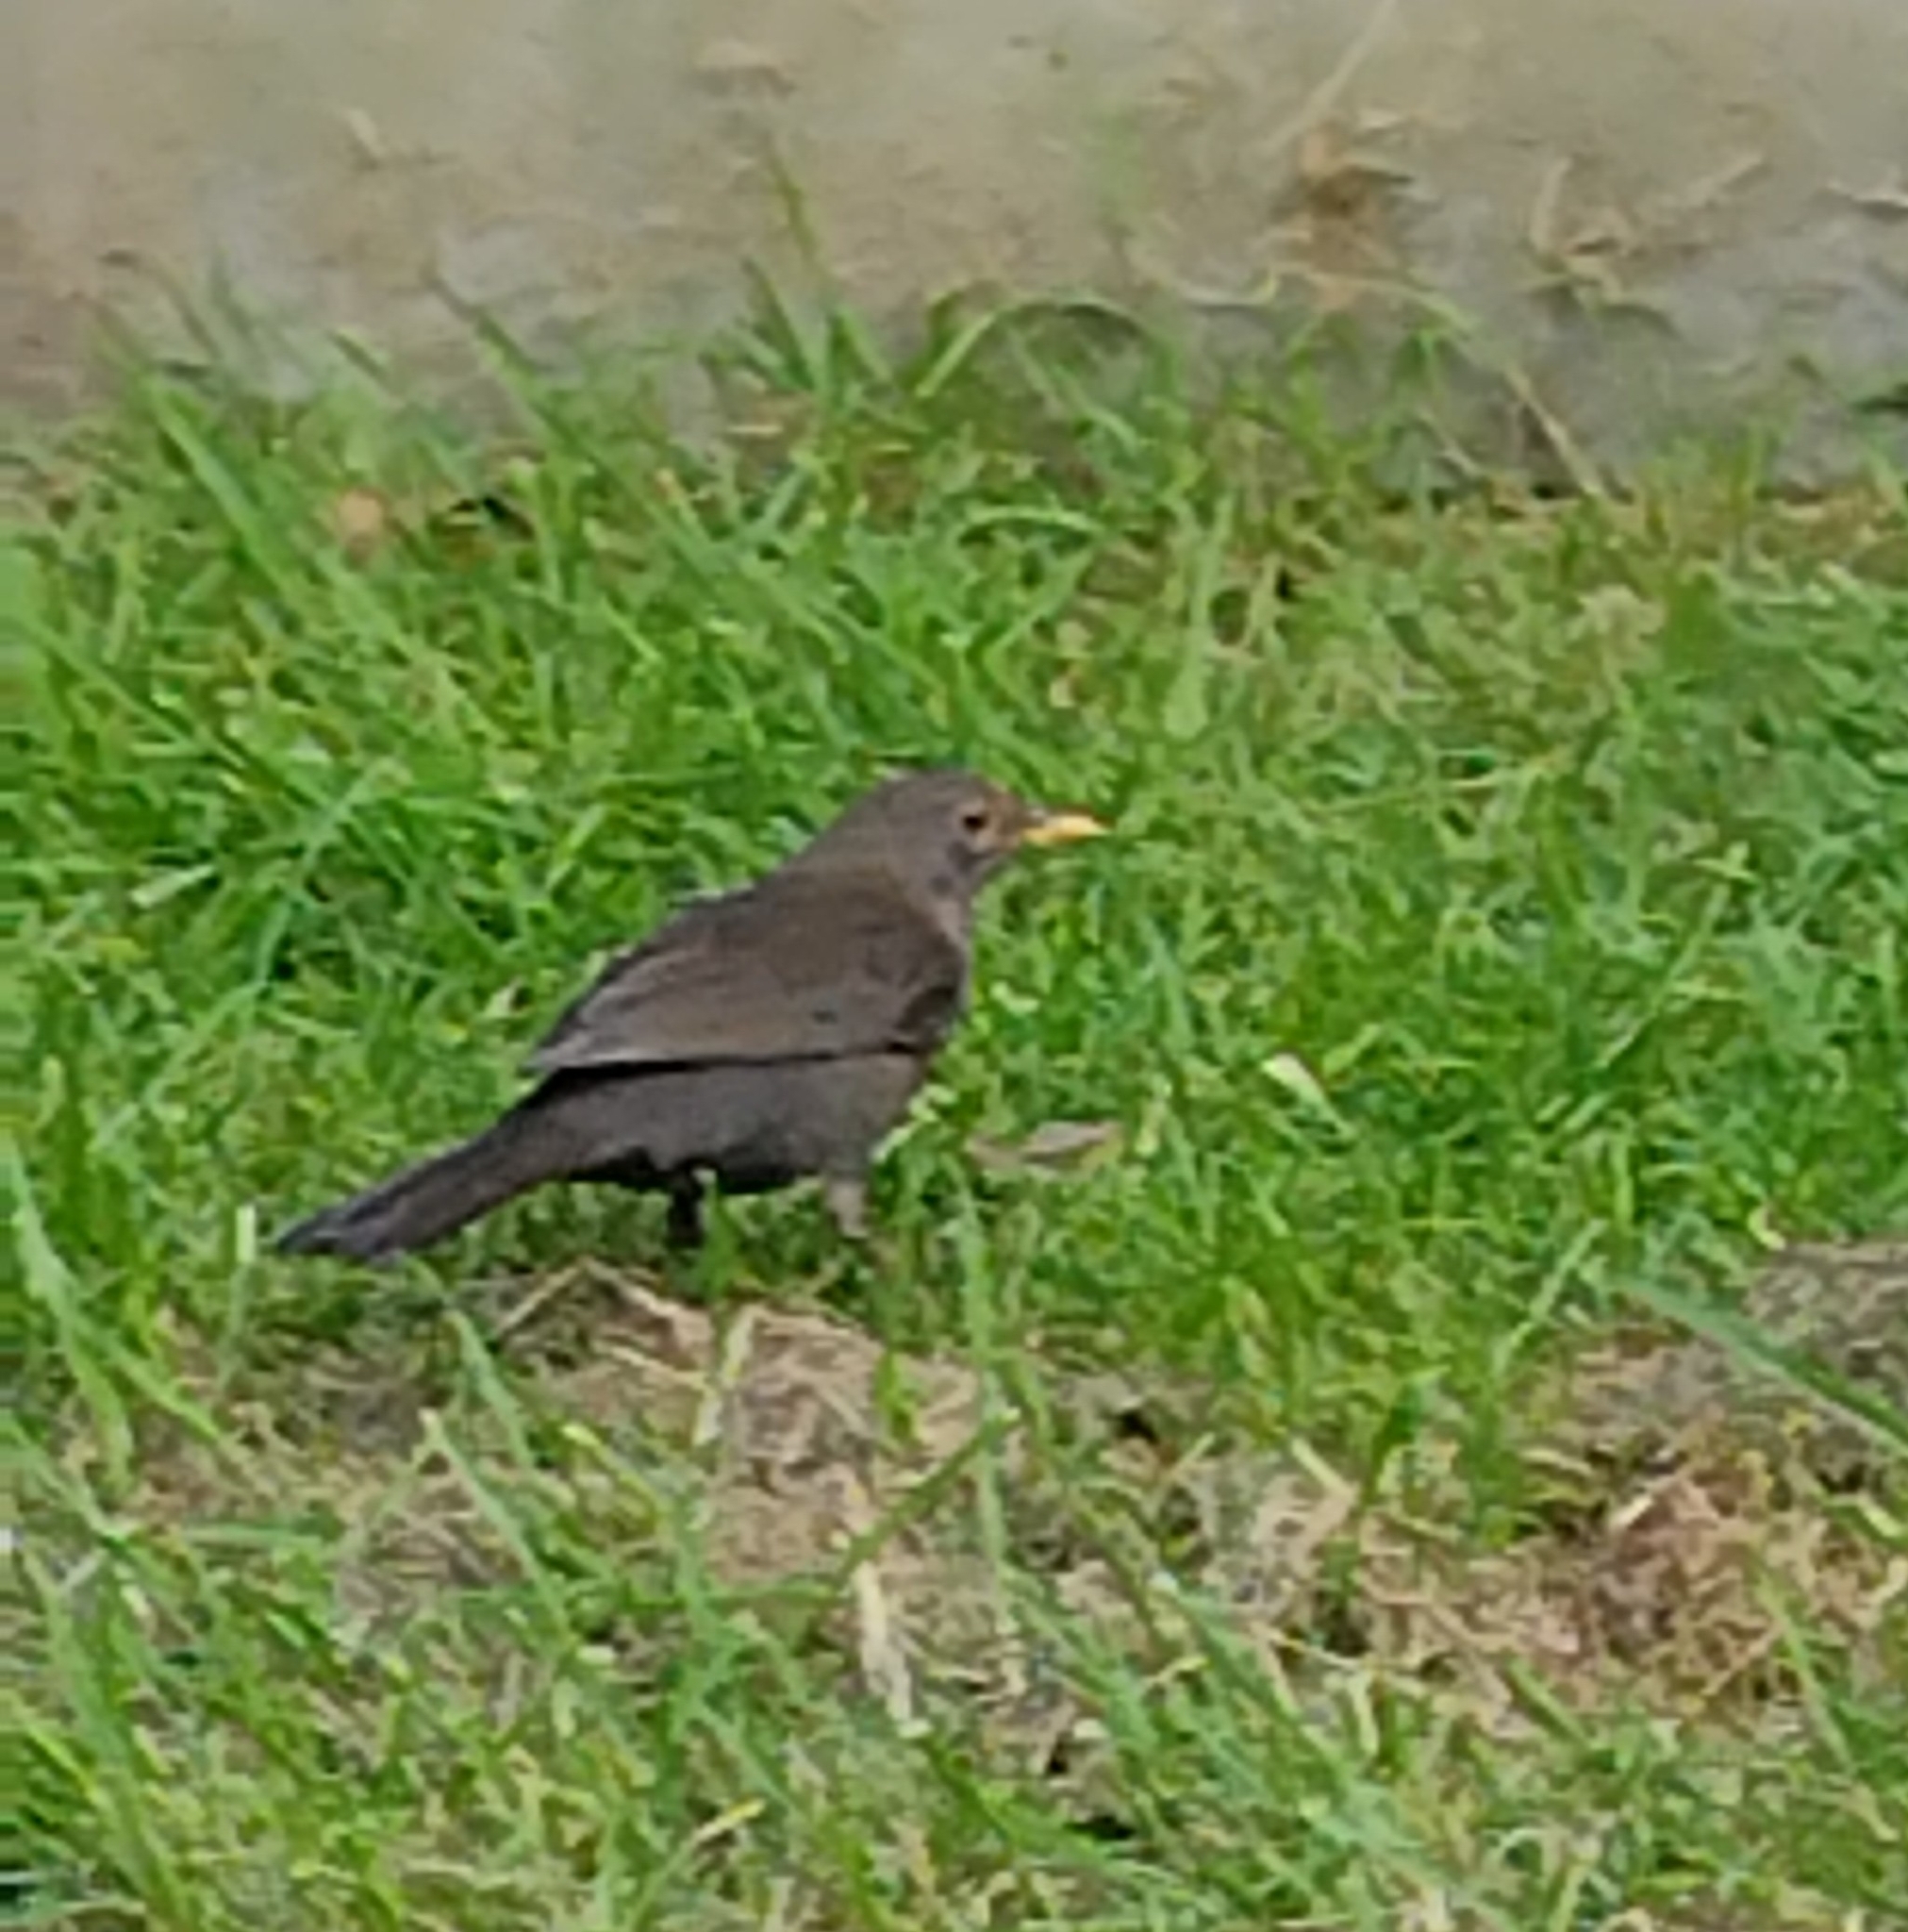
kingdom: Animalia
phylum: Chordata
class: Aves
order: Passeriformes
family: Turdidae
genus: Turdus
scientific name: Turdus merula
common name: Common blackbird
